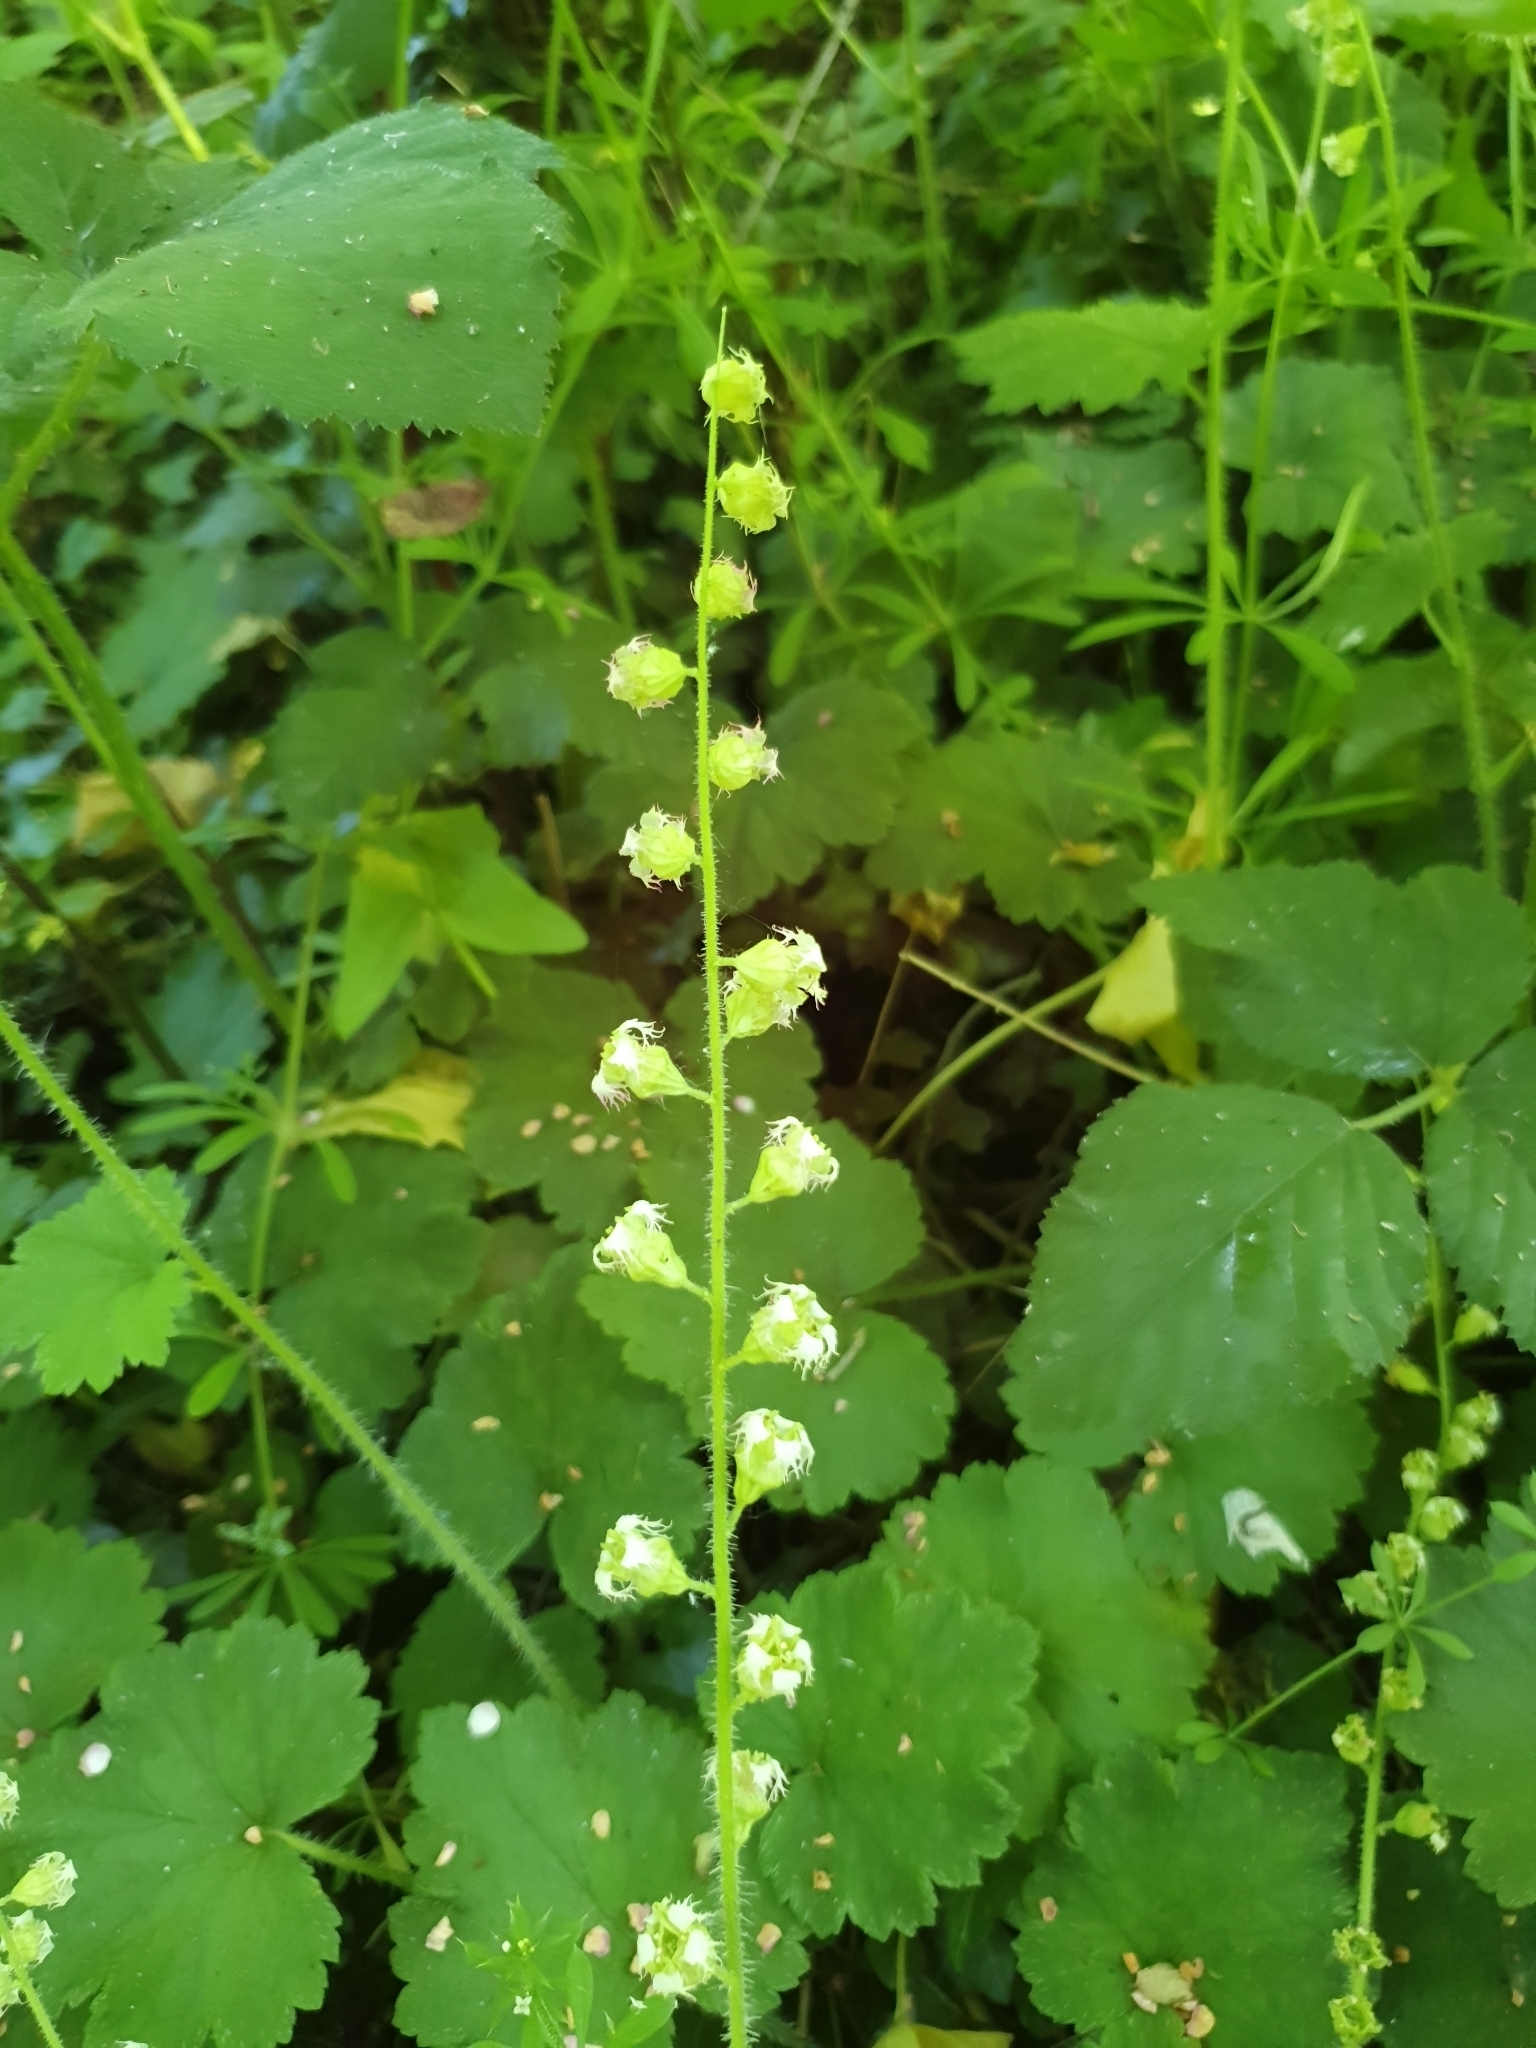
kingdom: Plantae
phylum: Tracheophyta
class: Magnoliopsida
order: Saxifragales
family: Saxifragaceae
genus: Tellima
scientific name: Tellima grandiflora
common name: Fringecups
